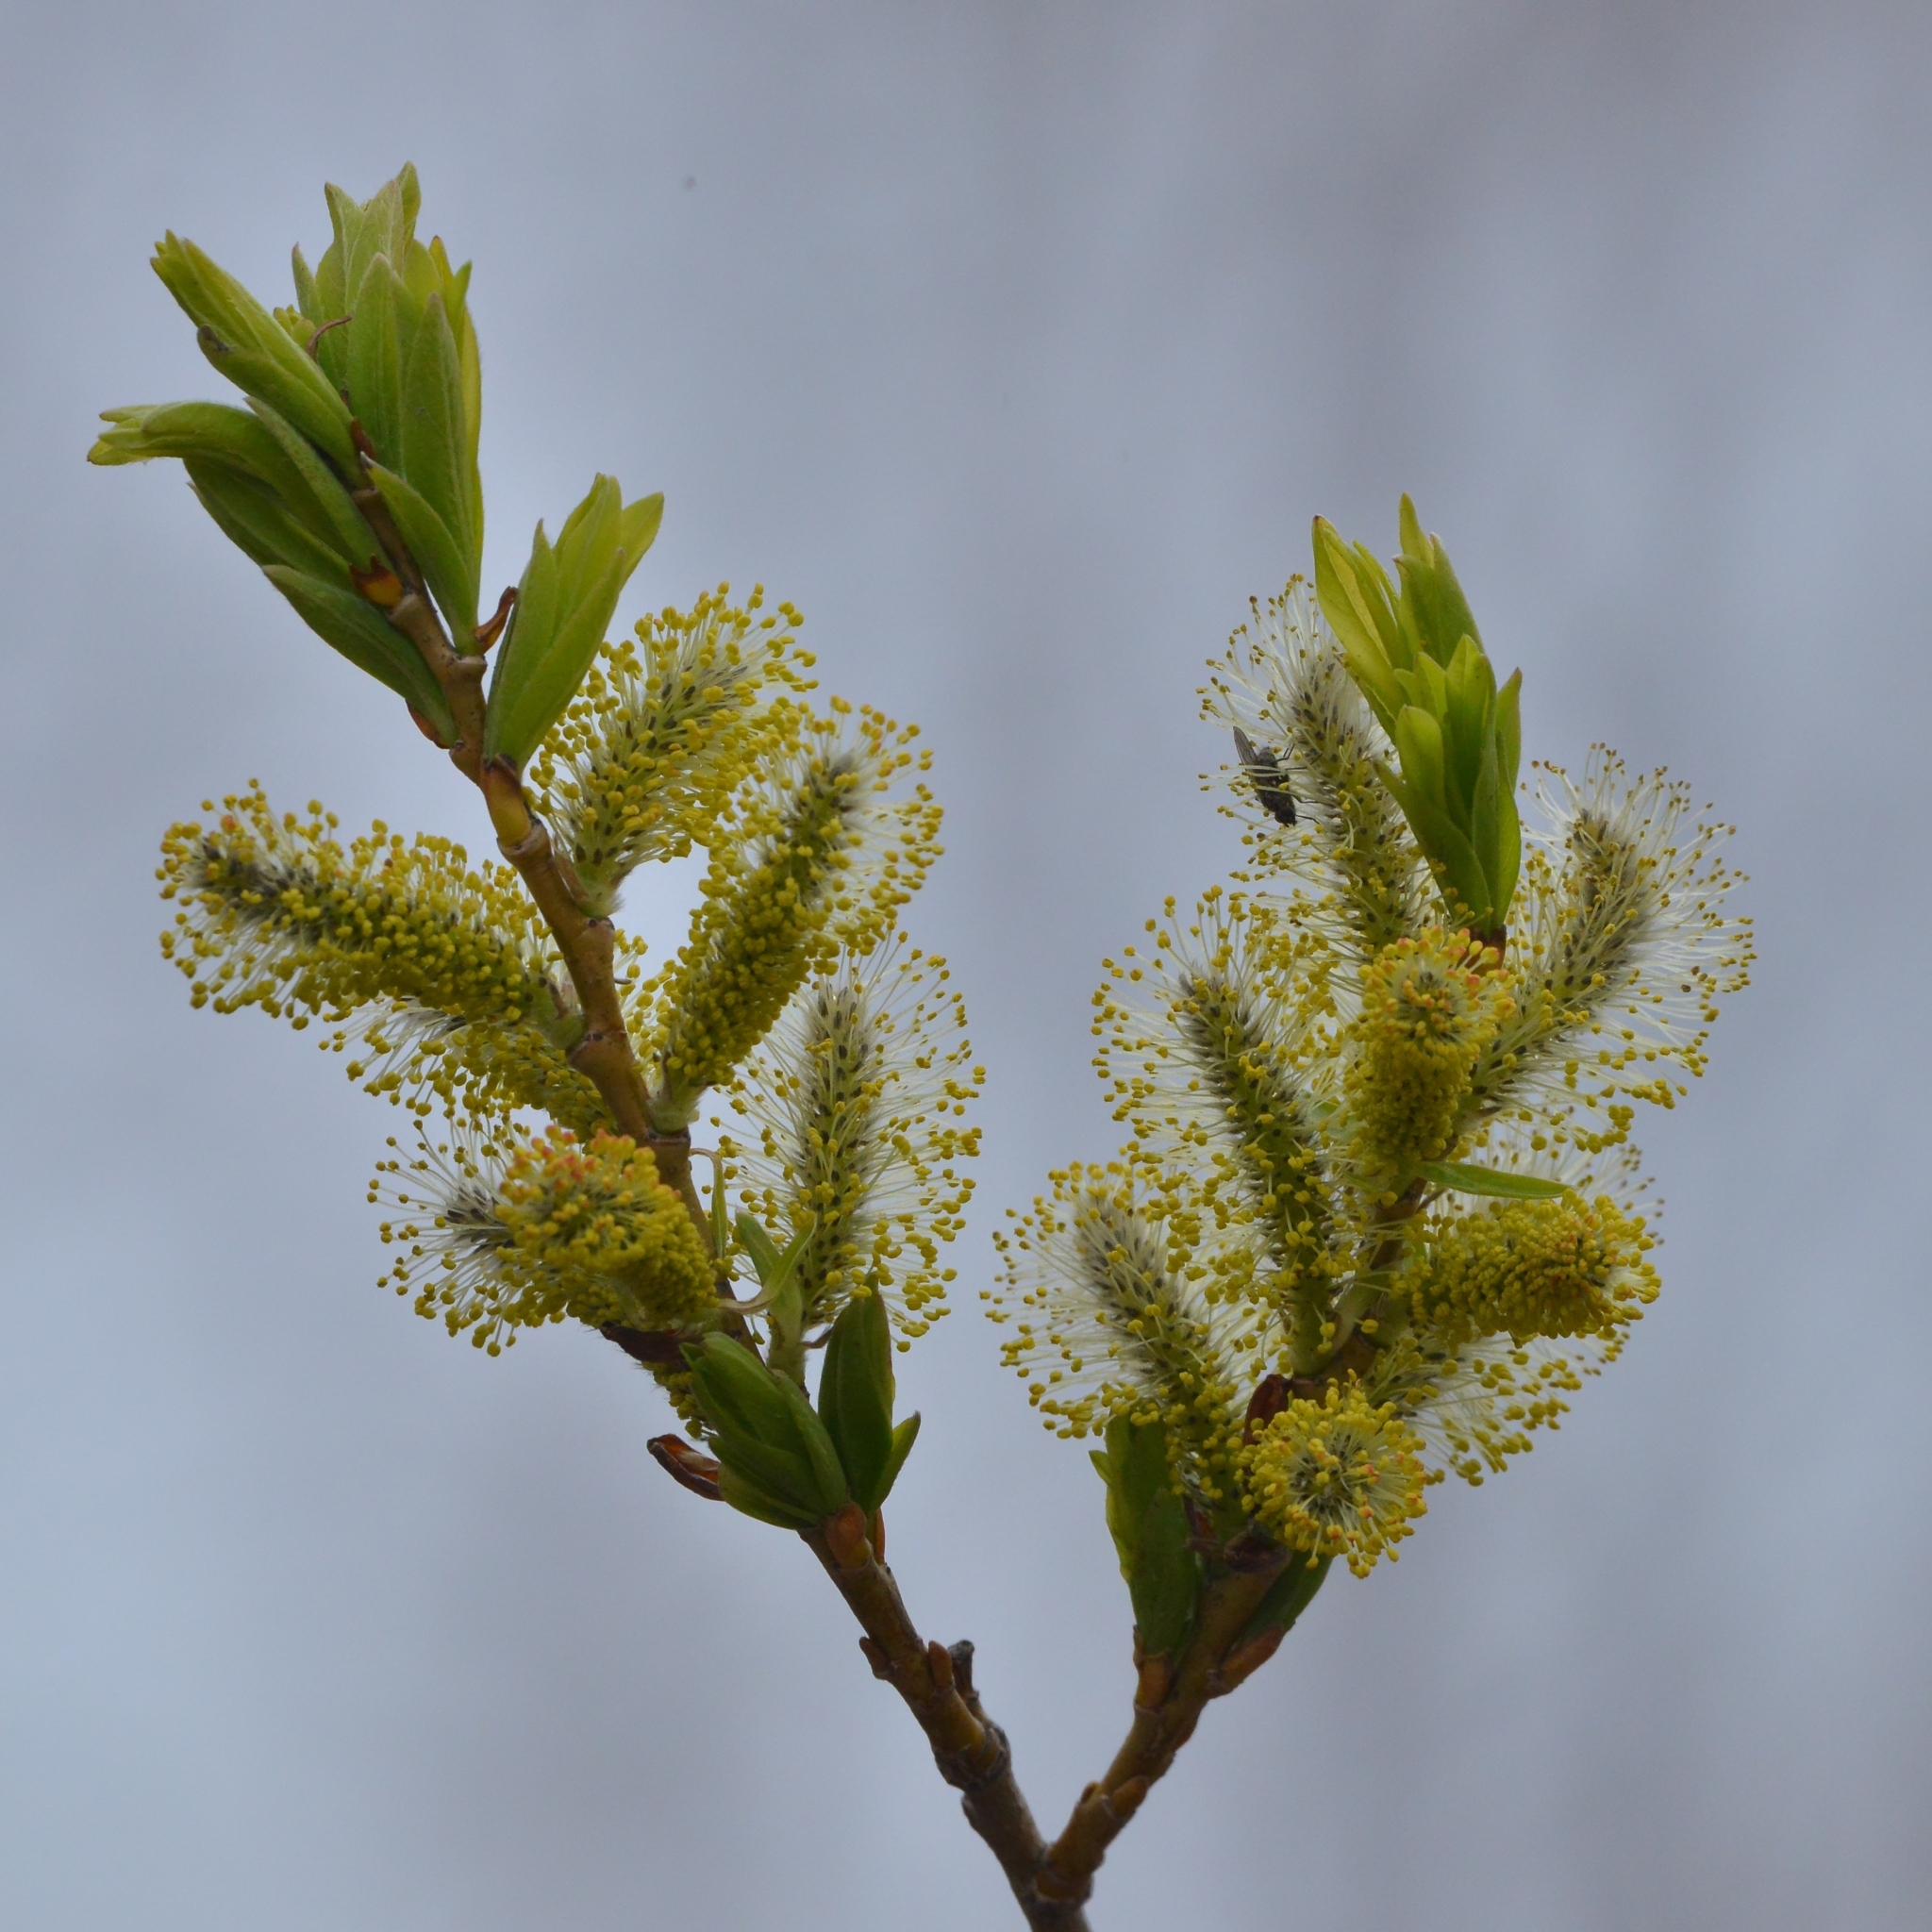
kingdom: Plantae
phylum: Tracheophyta
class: Magnoliopsida
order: Malpighiales
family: Salicaceae
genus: Salix
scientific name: Salix udensis
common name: Sachalin willow
